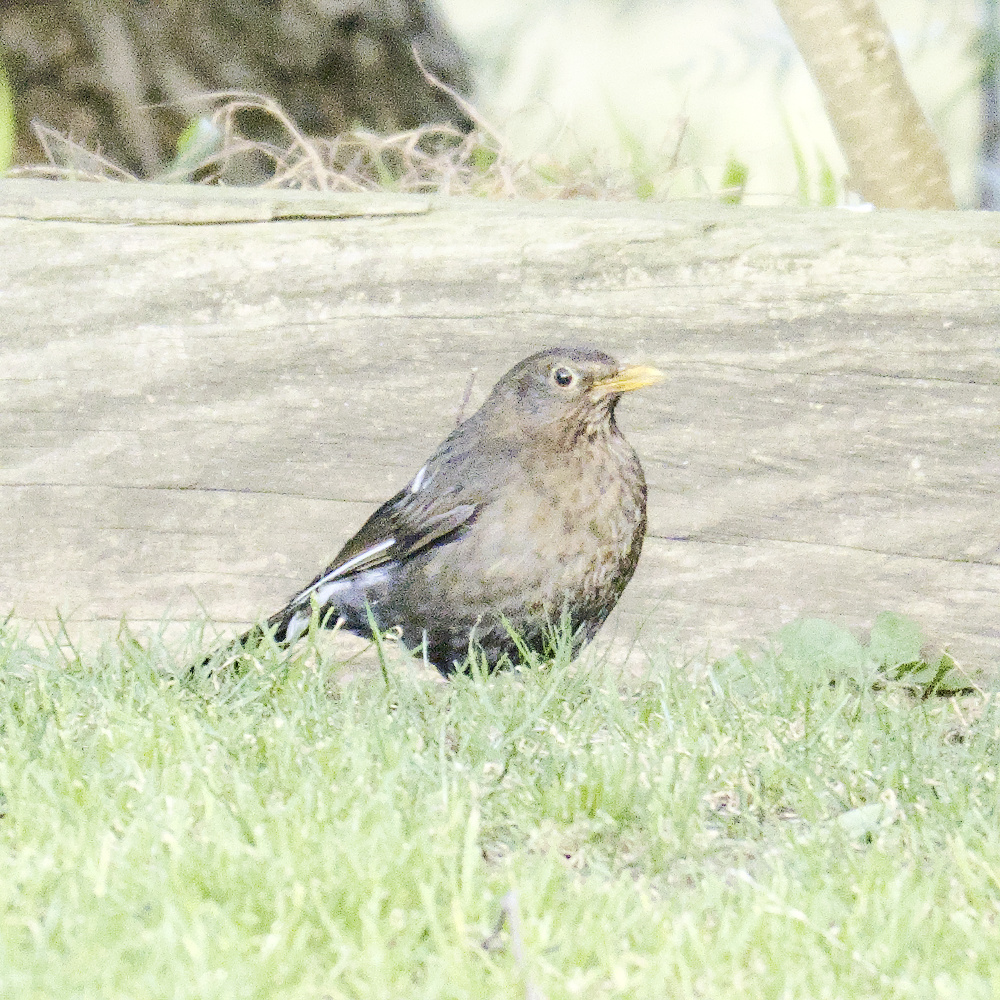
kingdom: Animalia
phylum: Chordata
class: Aves
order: Passeriformes
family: Turdidae
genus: Turdus
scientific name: Turdus merula
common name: Common blackbird
